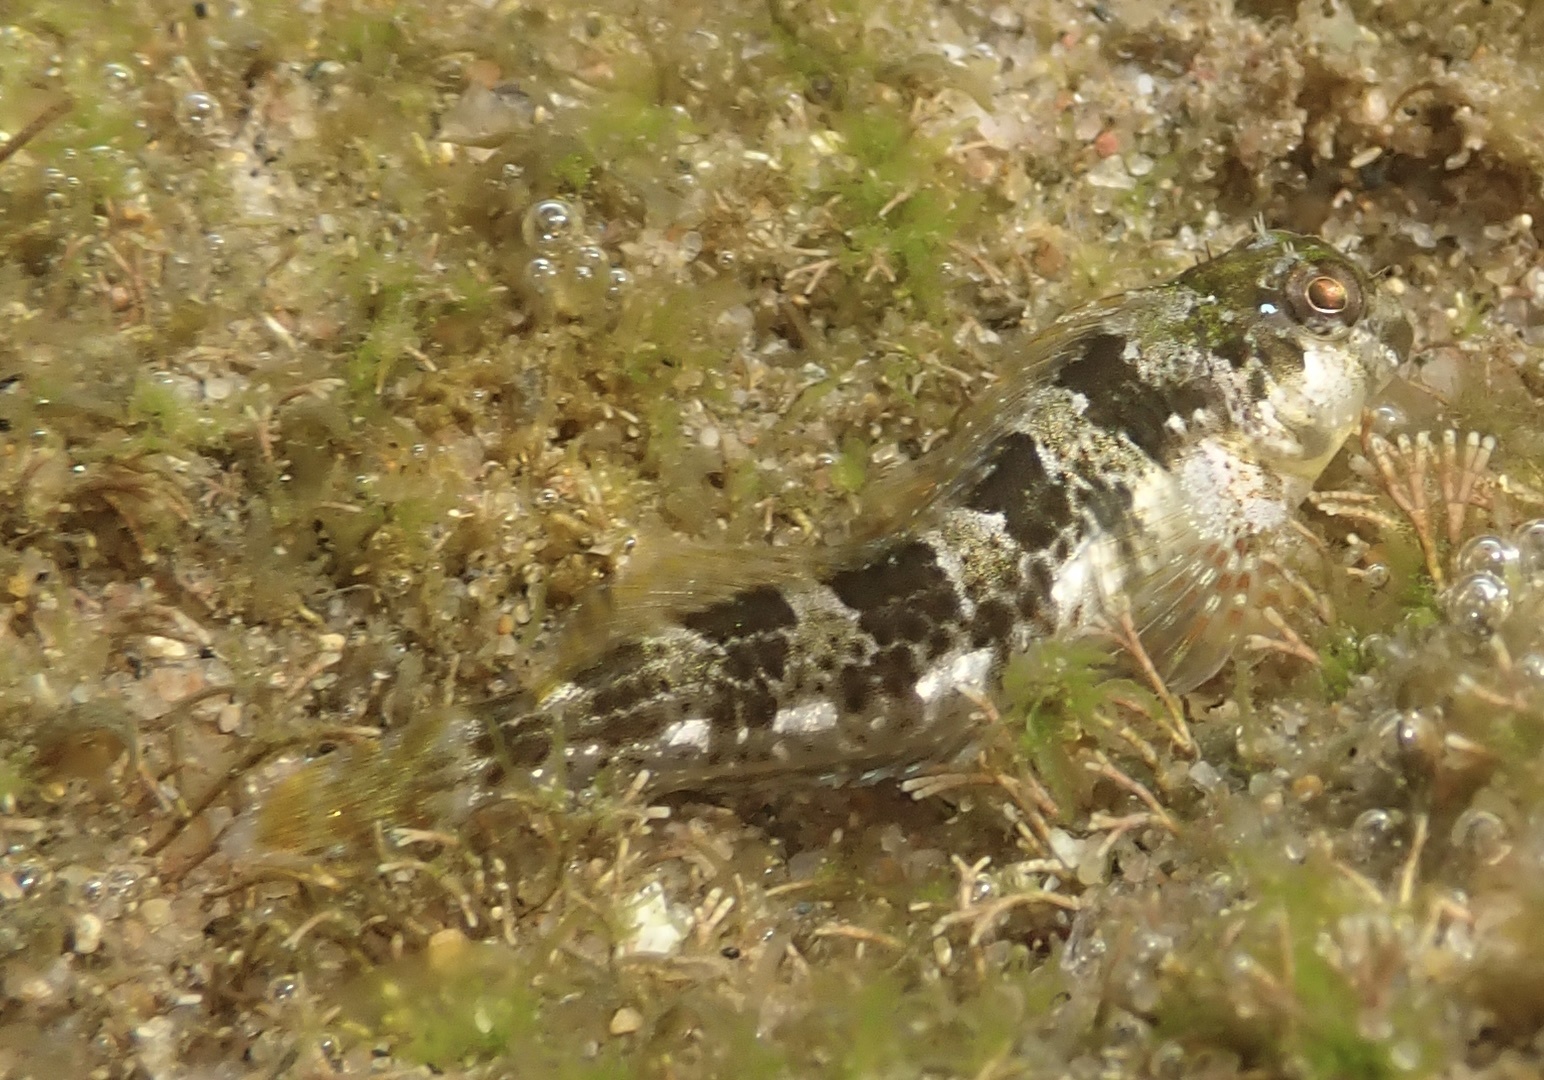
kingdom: Animalia
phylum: Chordata
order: Perciformes
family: Blenniidae
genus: Scartella
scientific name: Scartella emarginata
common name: Maned blenny
